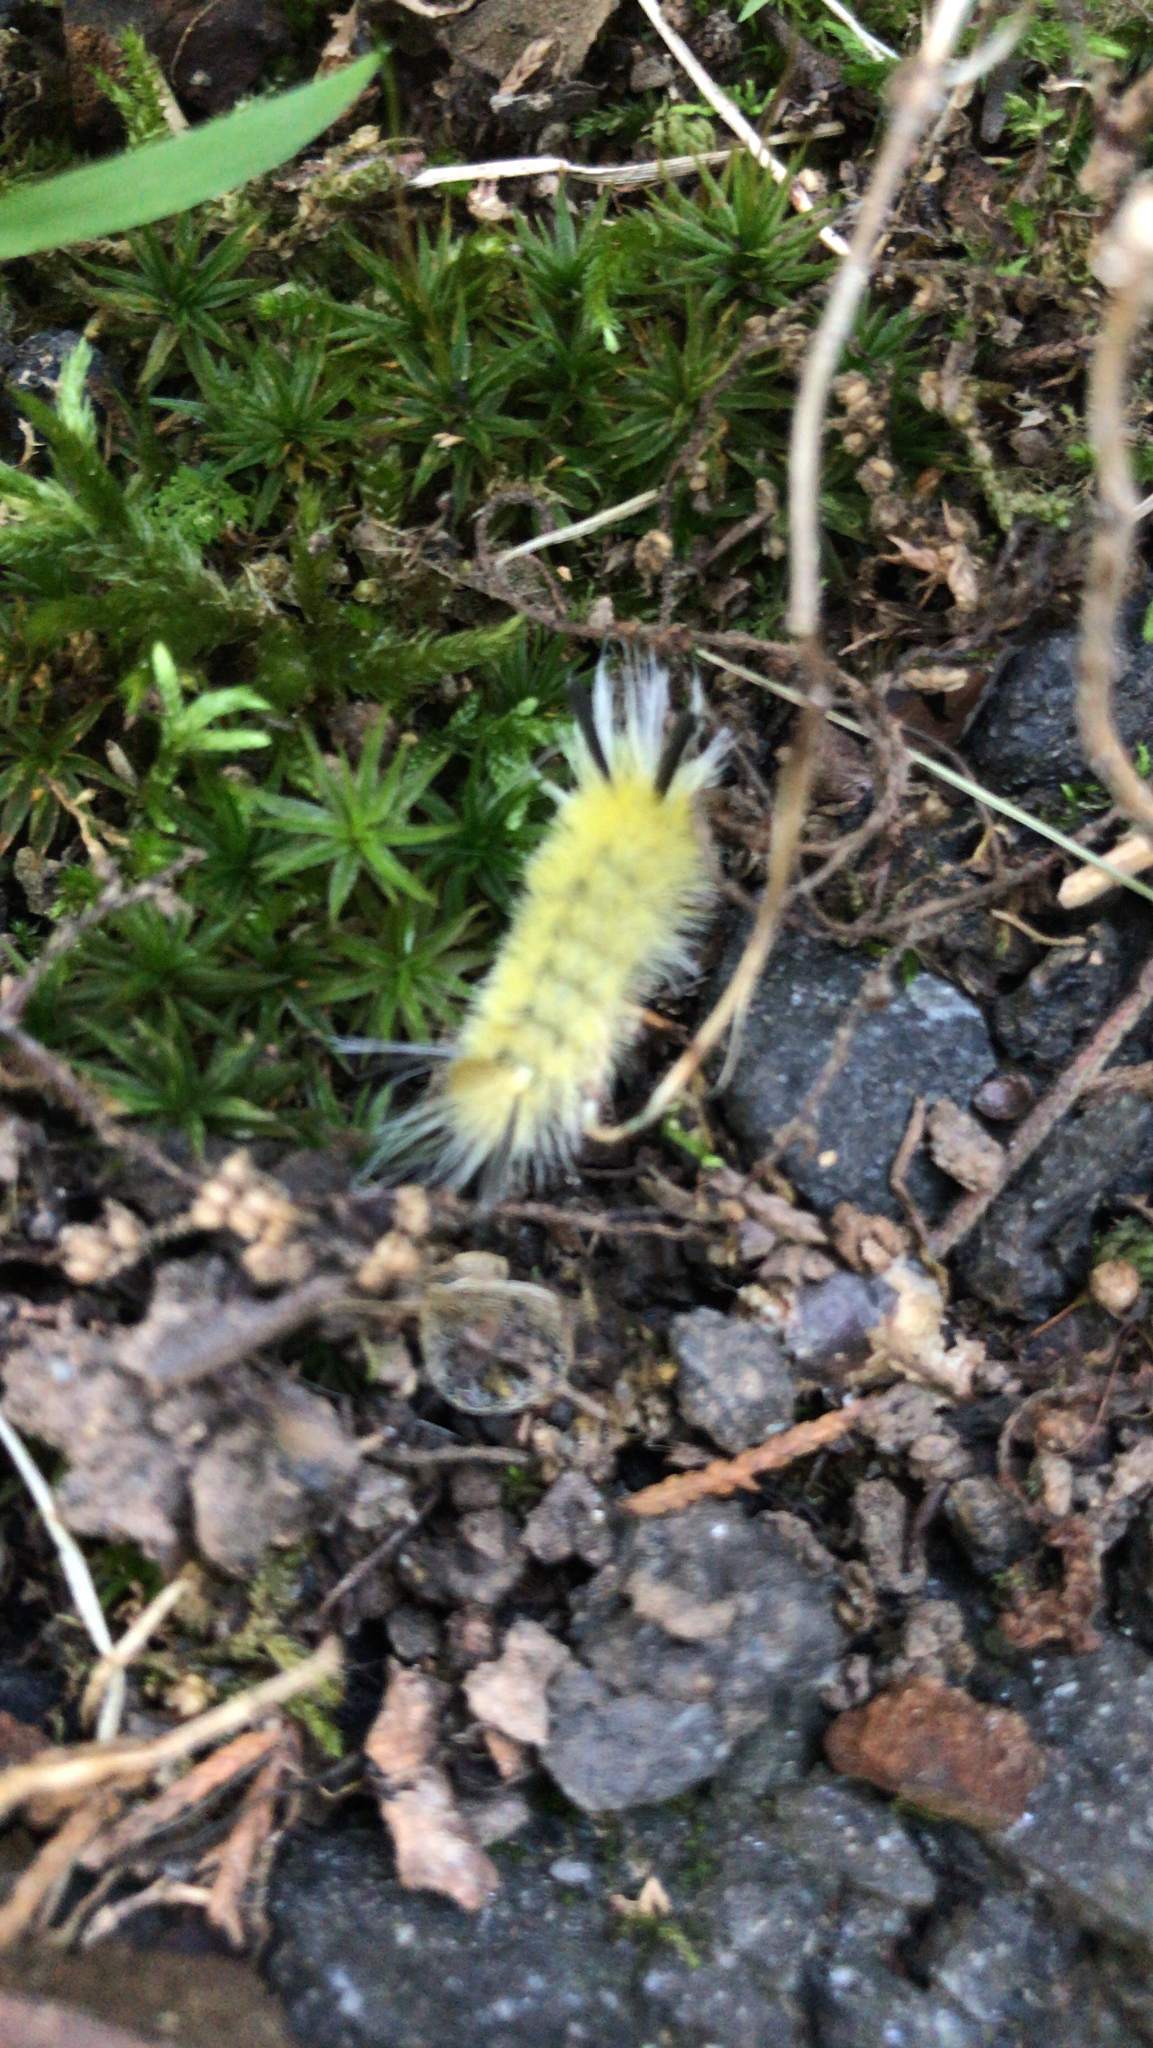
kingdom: Animalia
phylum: Arthropoda
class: Insecta
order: Lepidoptera
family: Erebidae
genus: Halysidota
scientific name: Halysidota tessellaris
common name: Banded tussock moth
